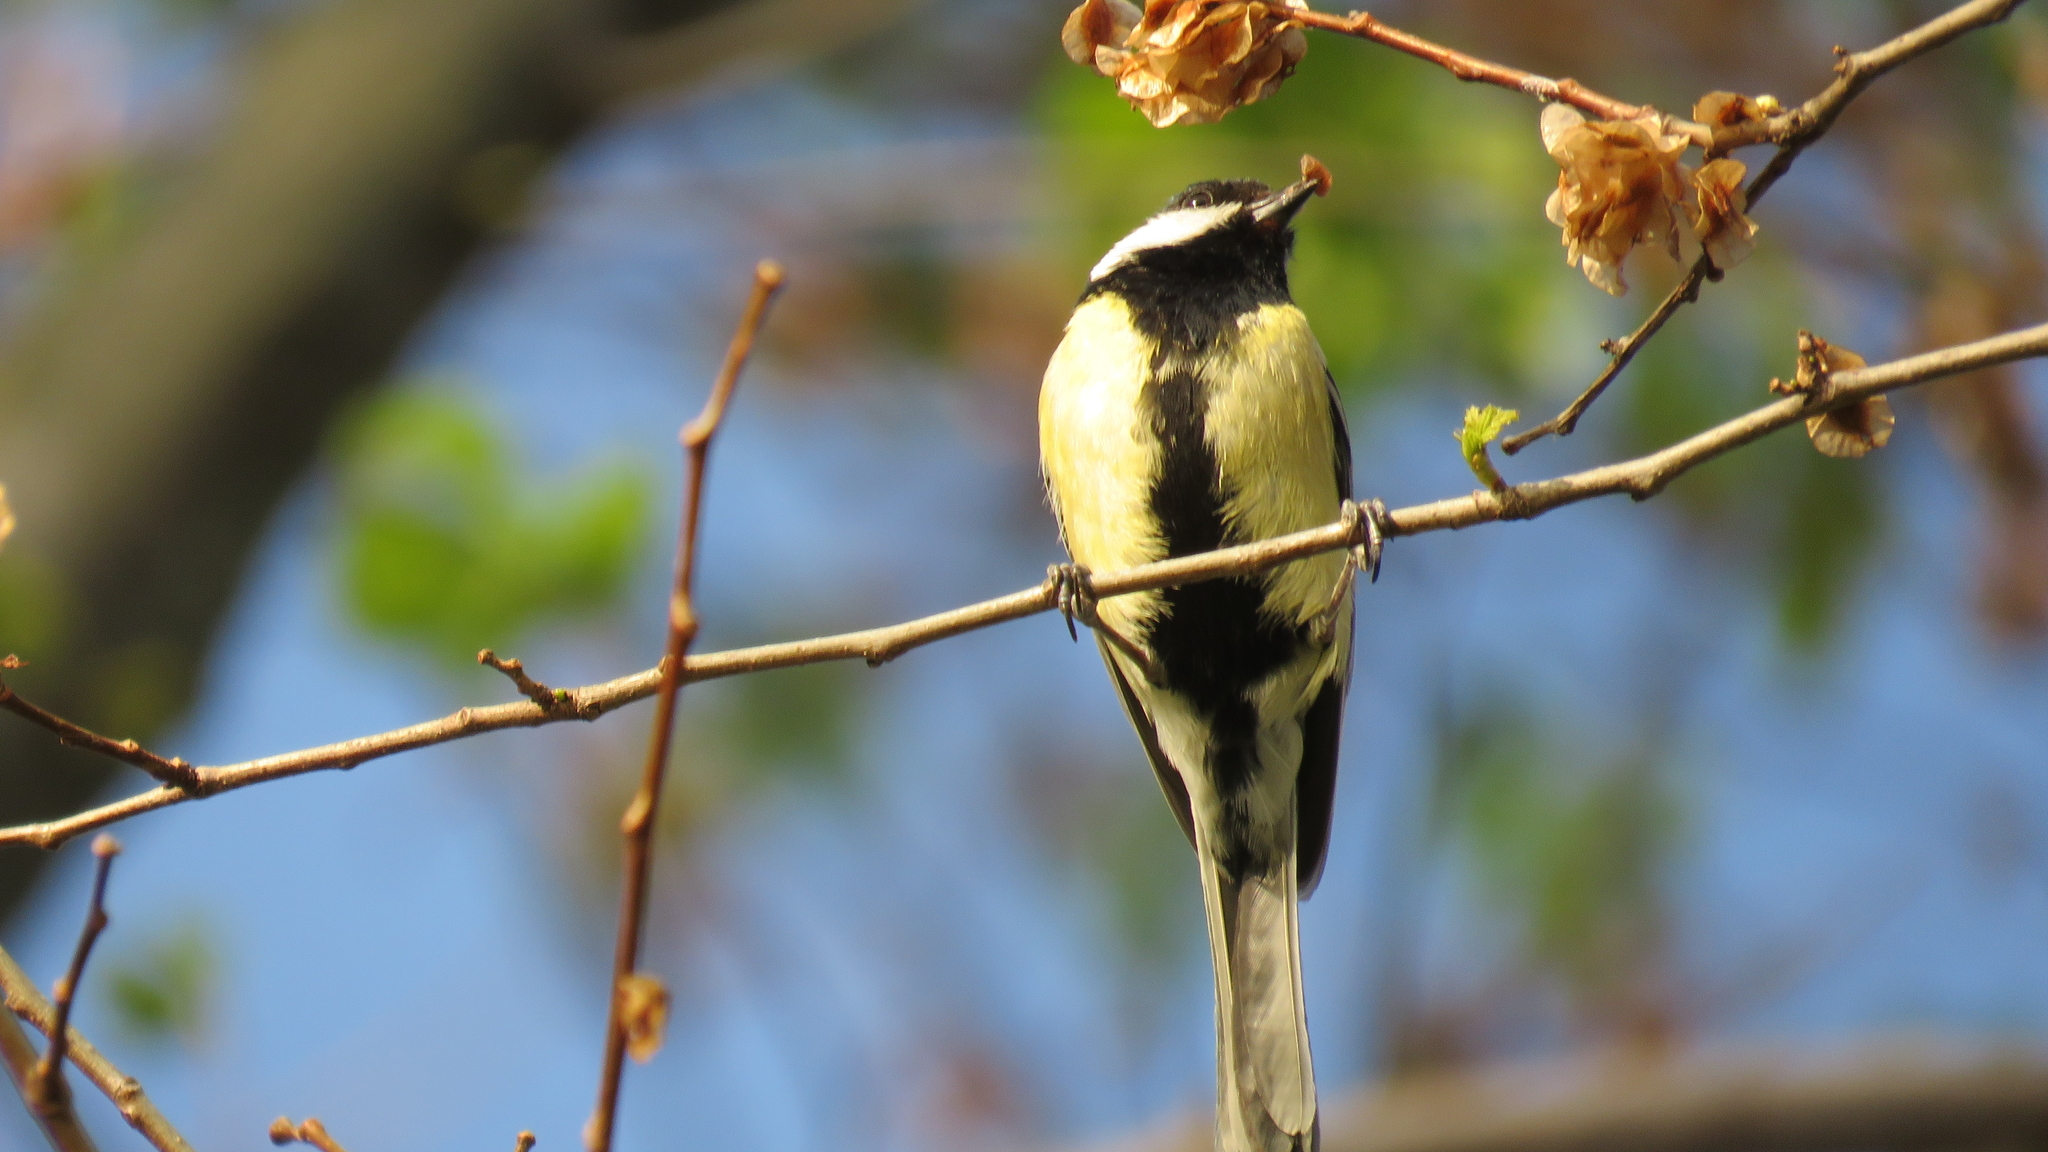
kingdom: Animalia
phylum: Chordata
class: Aves
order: Passeriformes
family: Paridae
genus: Parus
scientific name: Parus major
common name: Great tit
